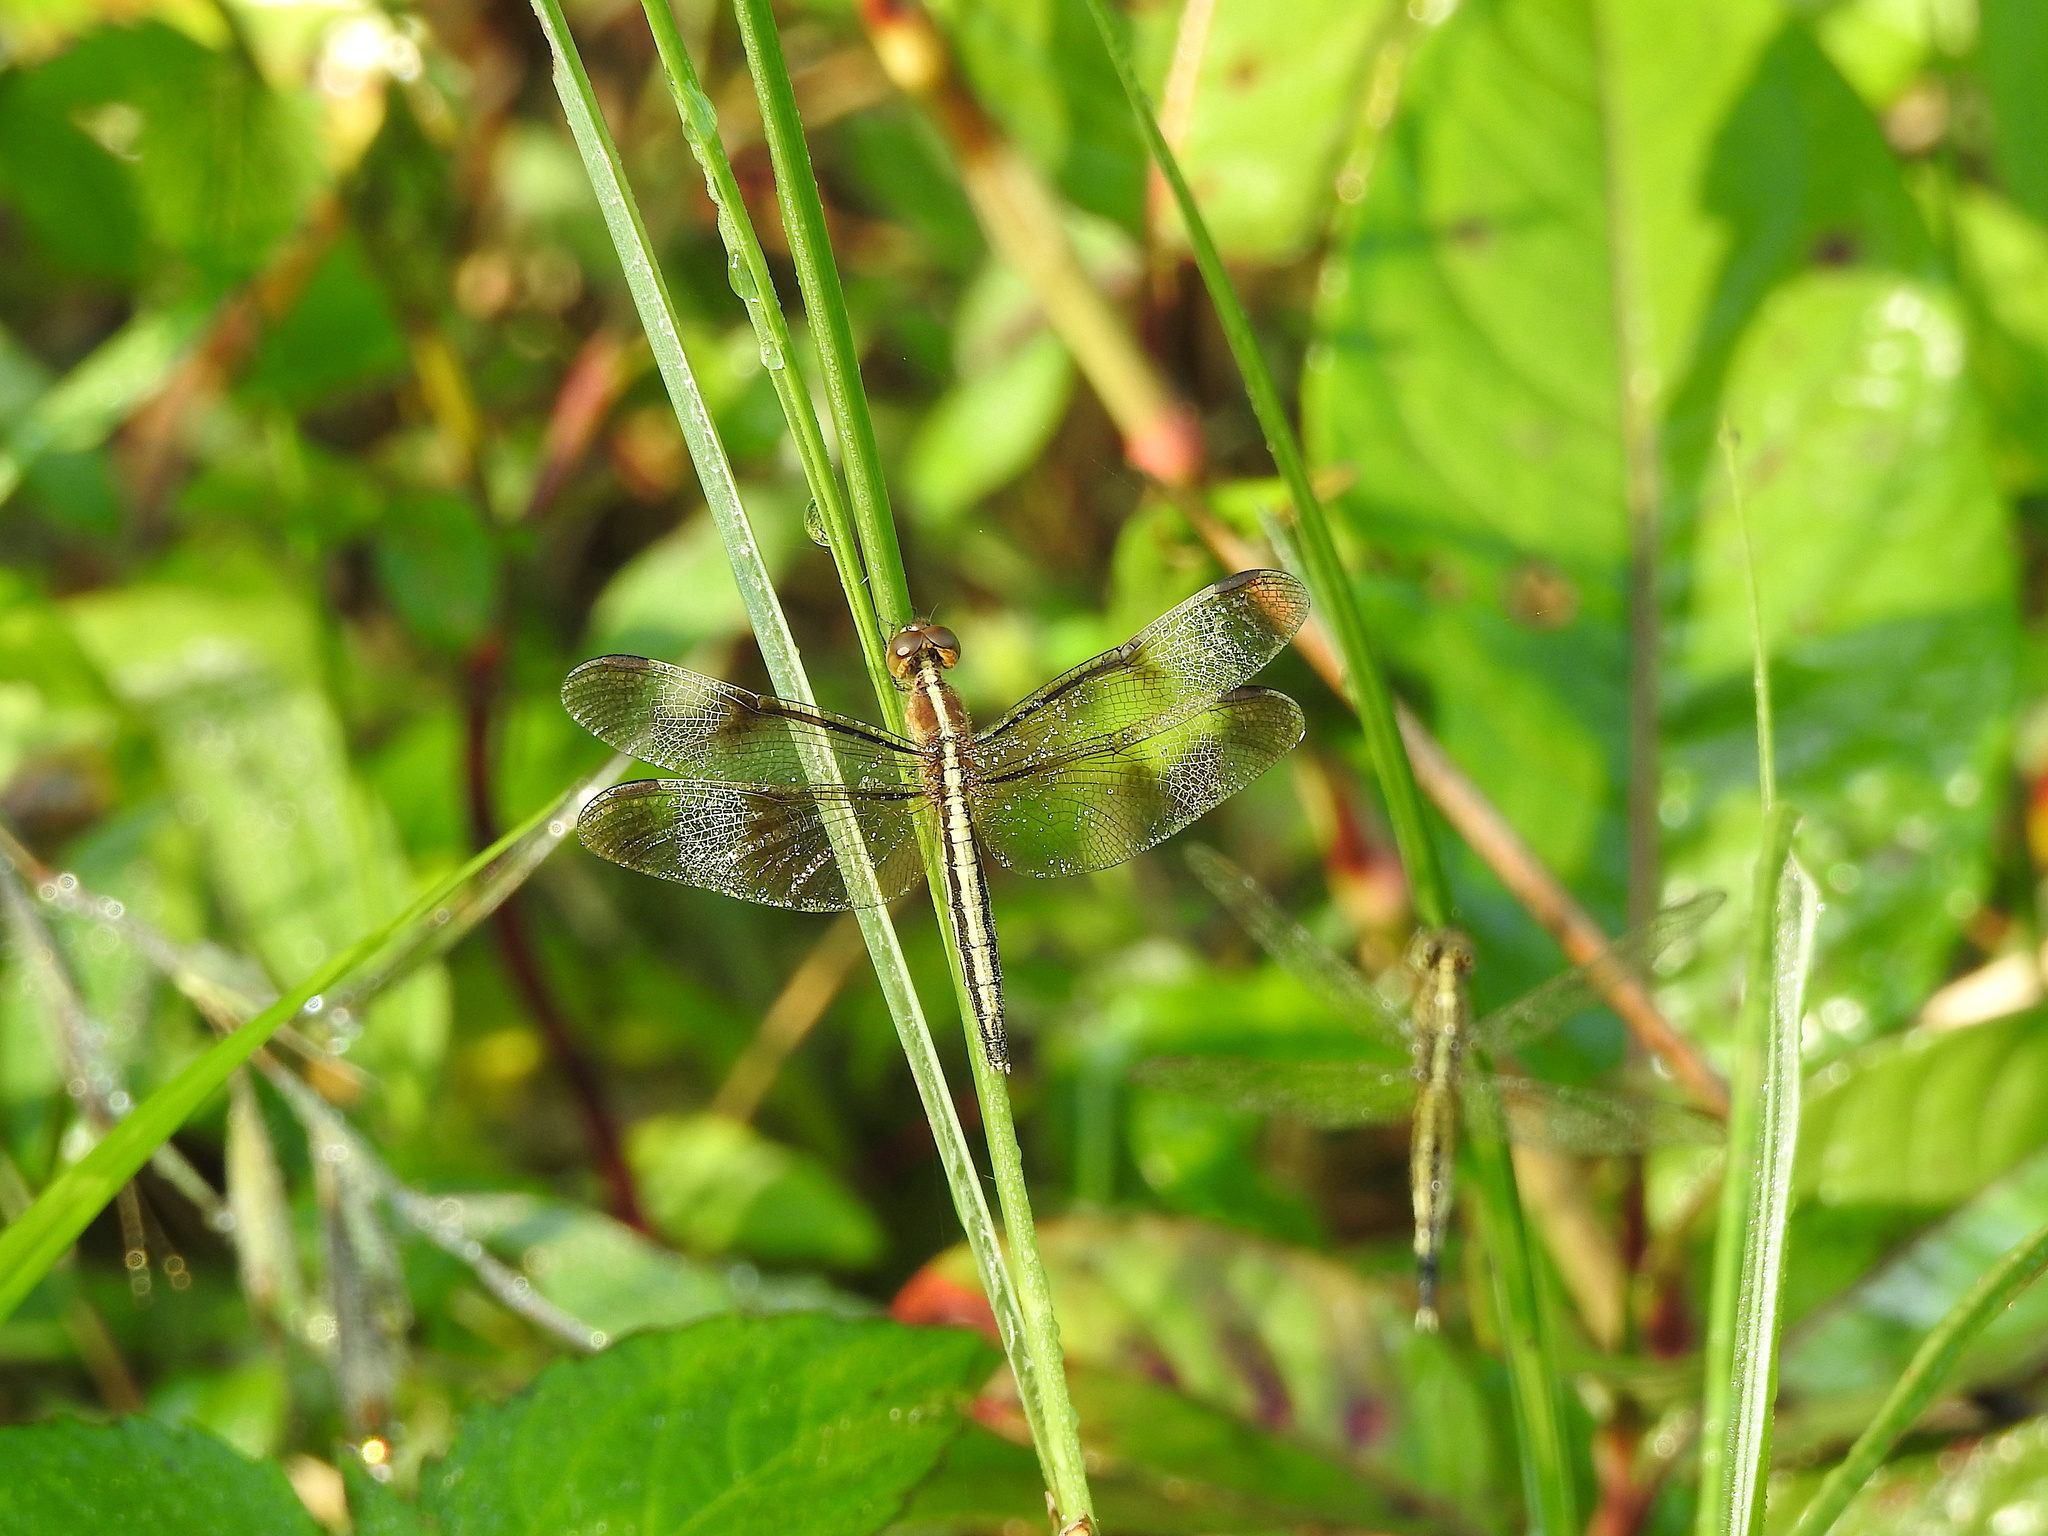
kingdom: Animalia
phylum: Arthropoda
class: Insecta
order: Odonata
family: Libellulidae
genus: Neurothemis
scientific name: Neurothemis tullia
